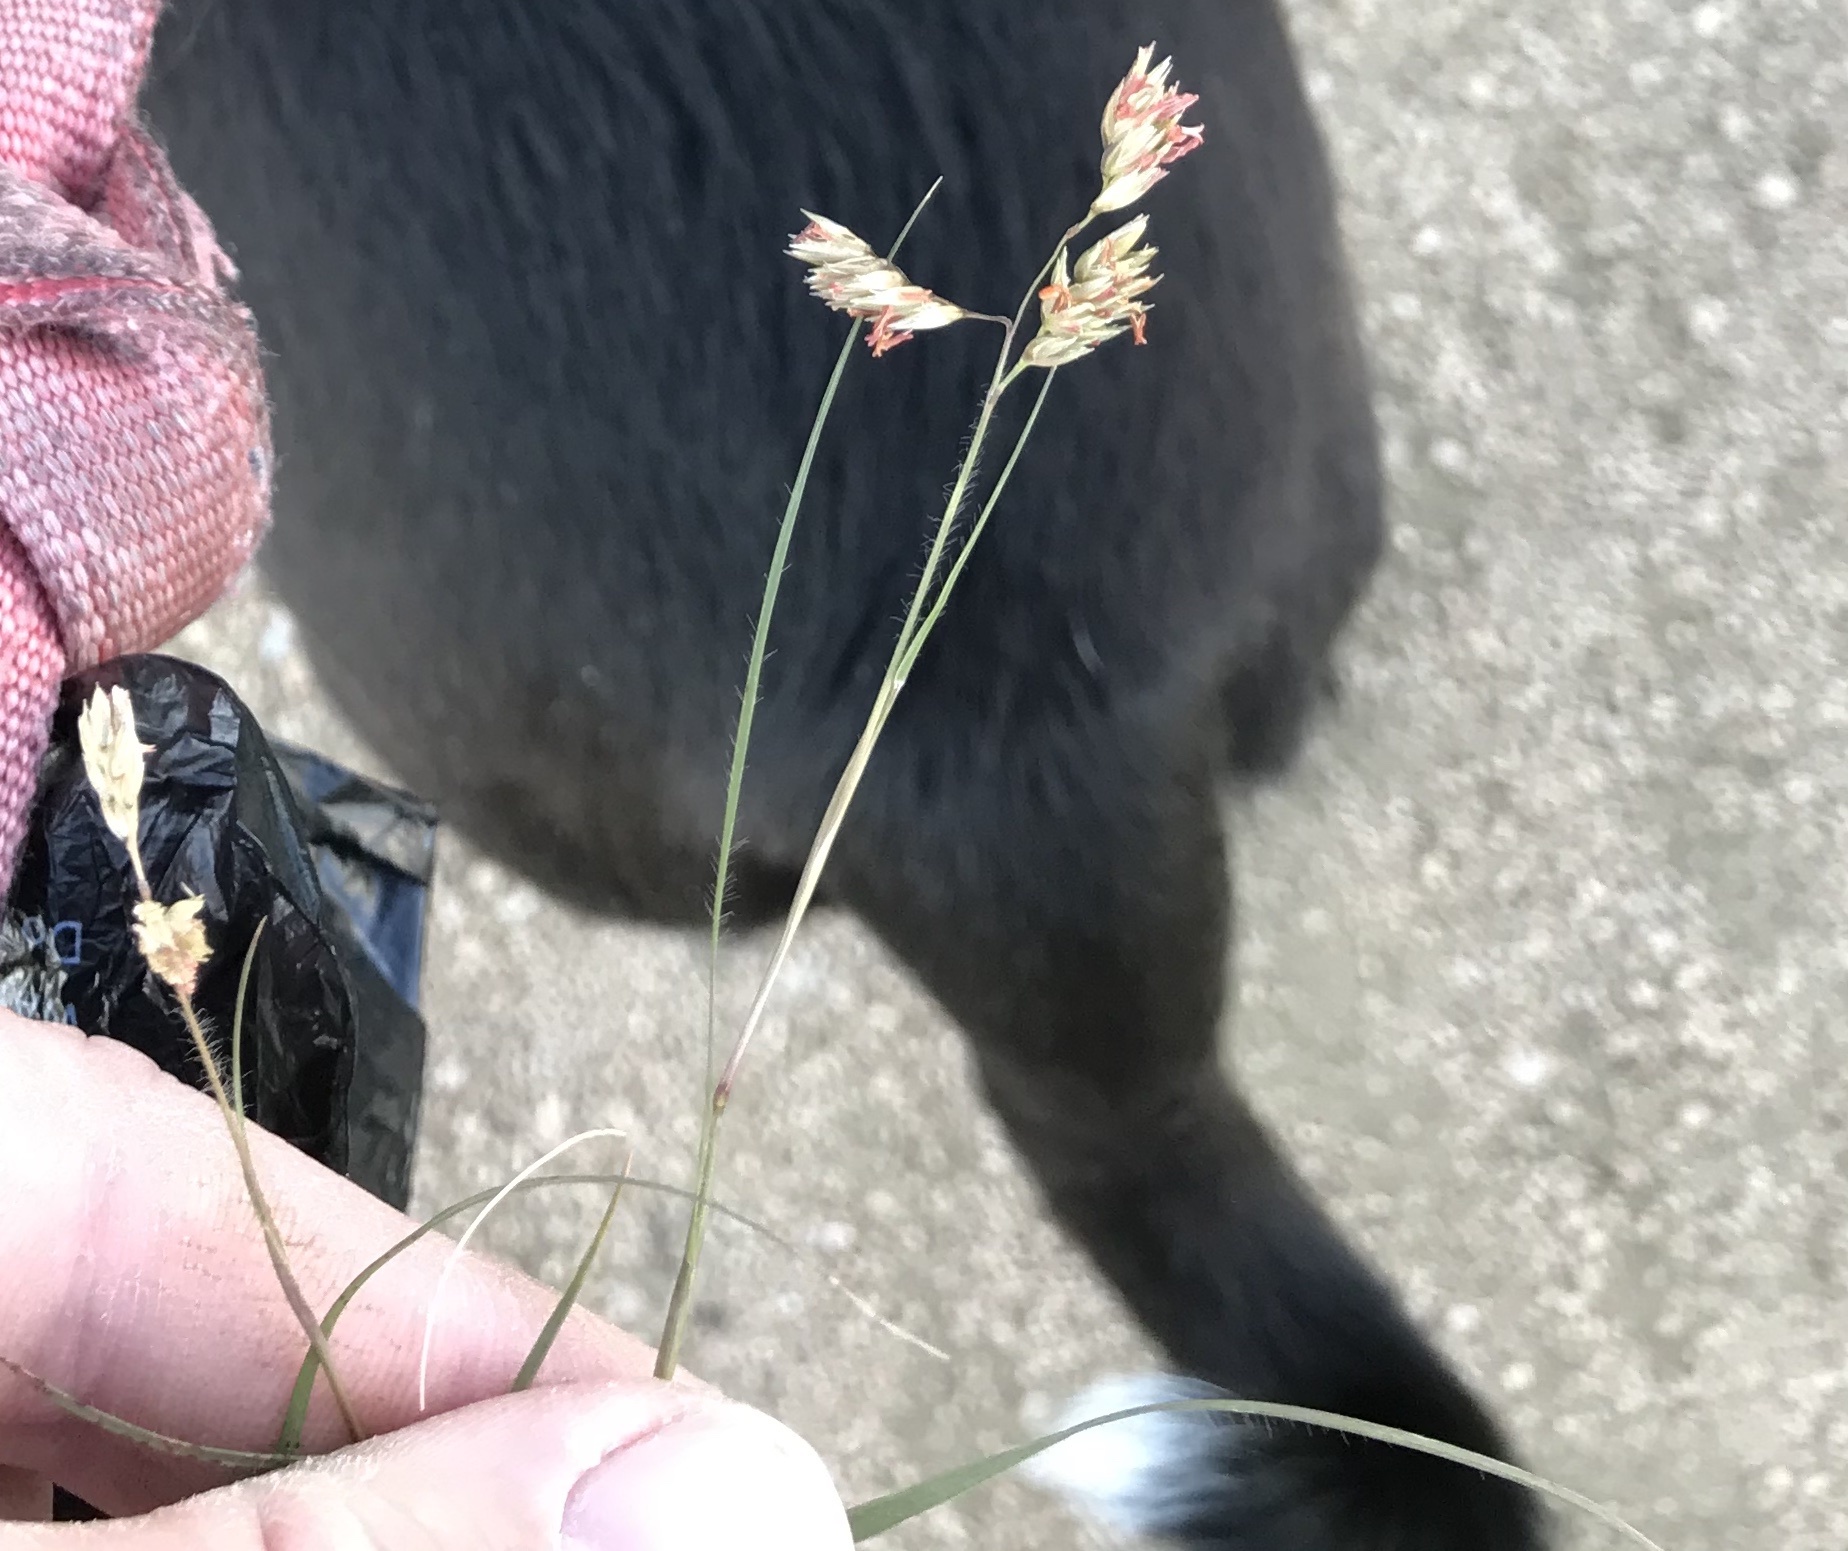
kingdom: Plantae
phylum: Tracheophyta
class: Liliopsida
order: Poales
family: Poaceae
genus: Bouteloua
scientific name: Bouteloua dactyloides
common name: Buffalo grass
